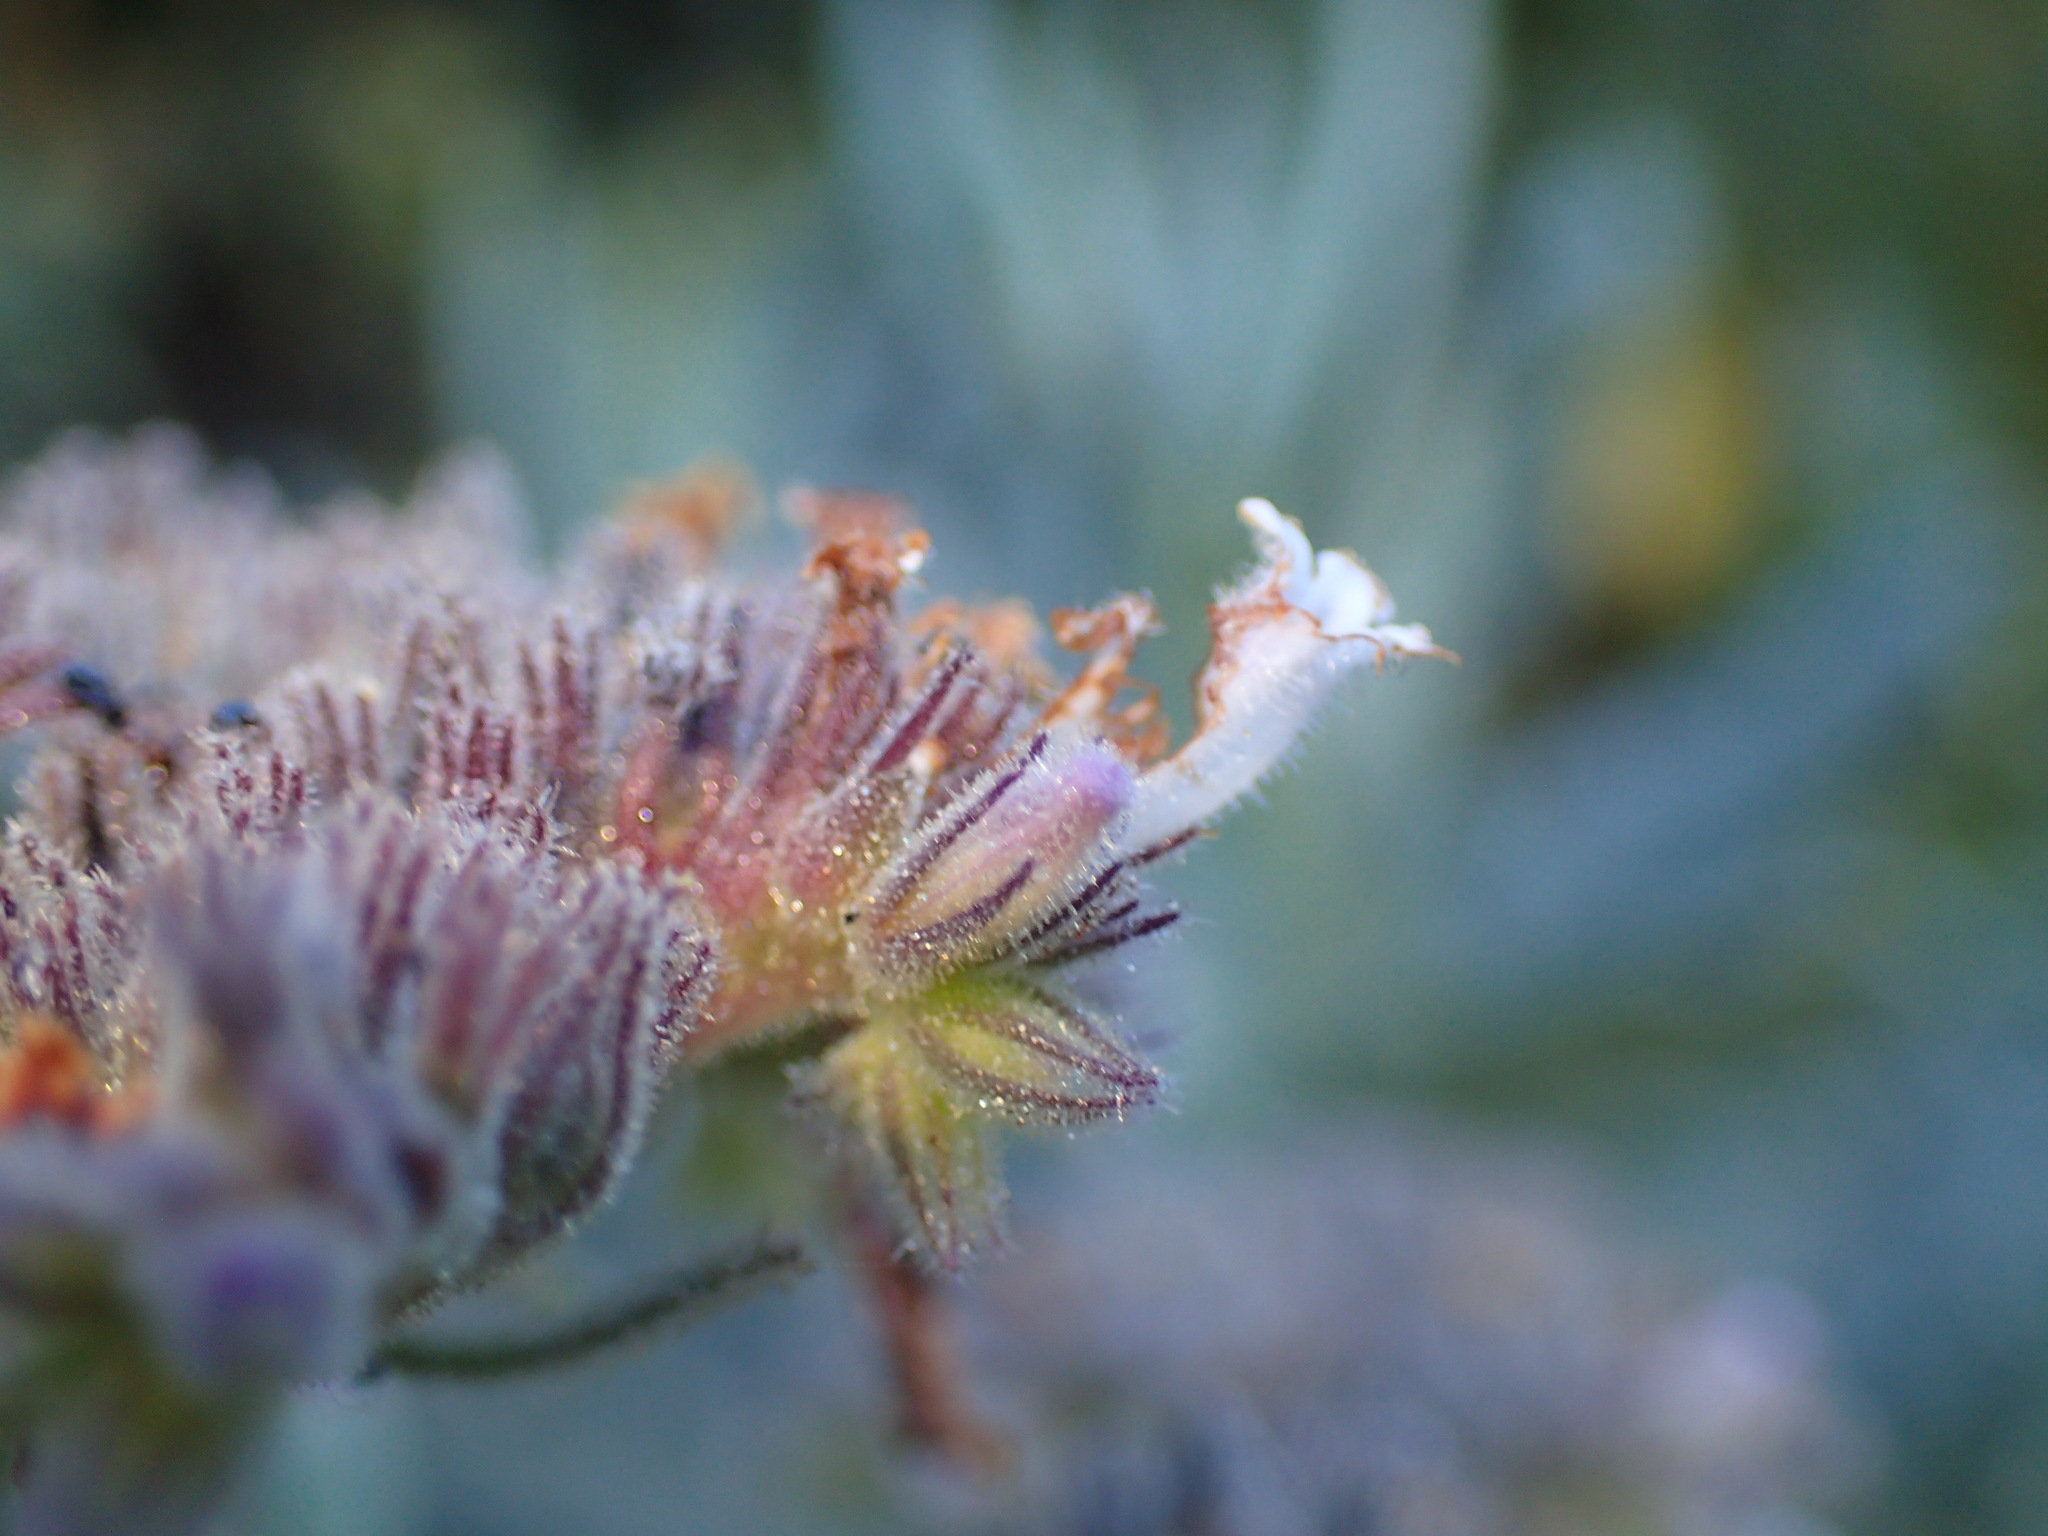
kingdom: Plantae
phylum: Tracheophyta
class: Magnoliopsida
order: Boraginales
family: Namaceae
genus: Eriodictyon
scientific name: Eriodictyon traskiae
